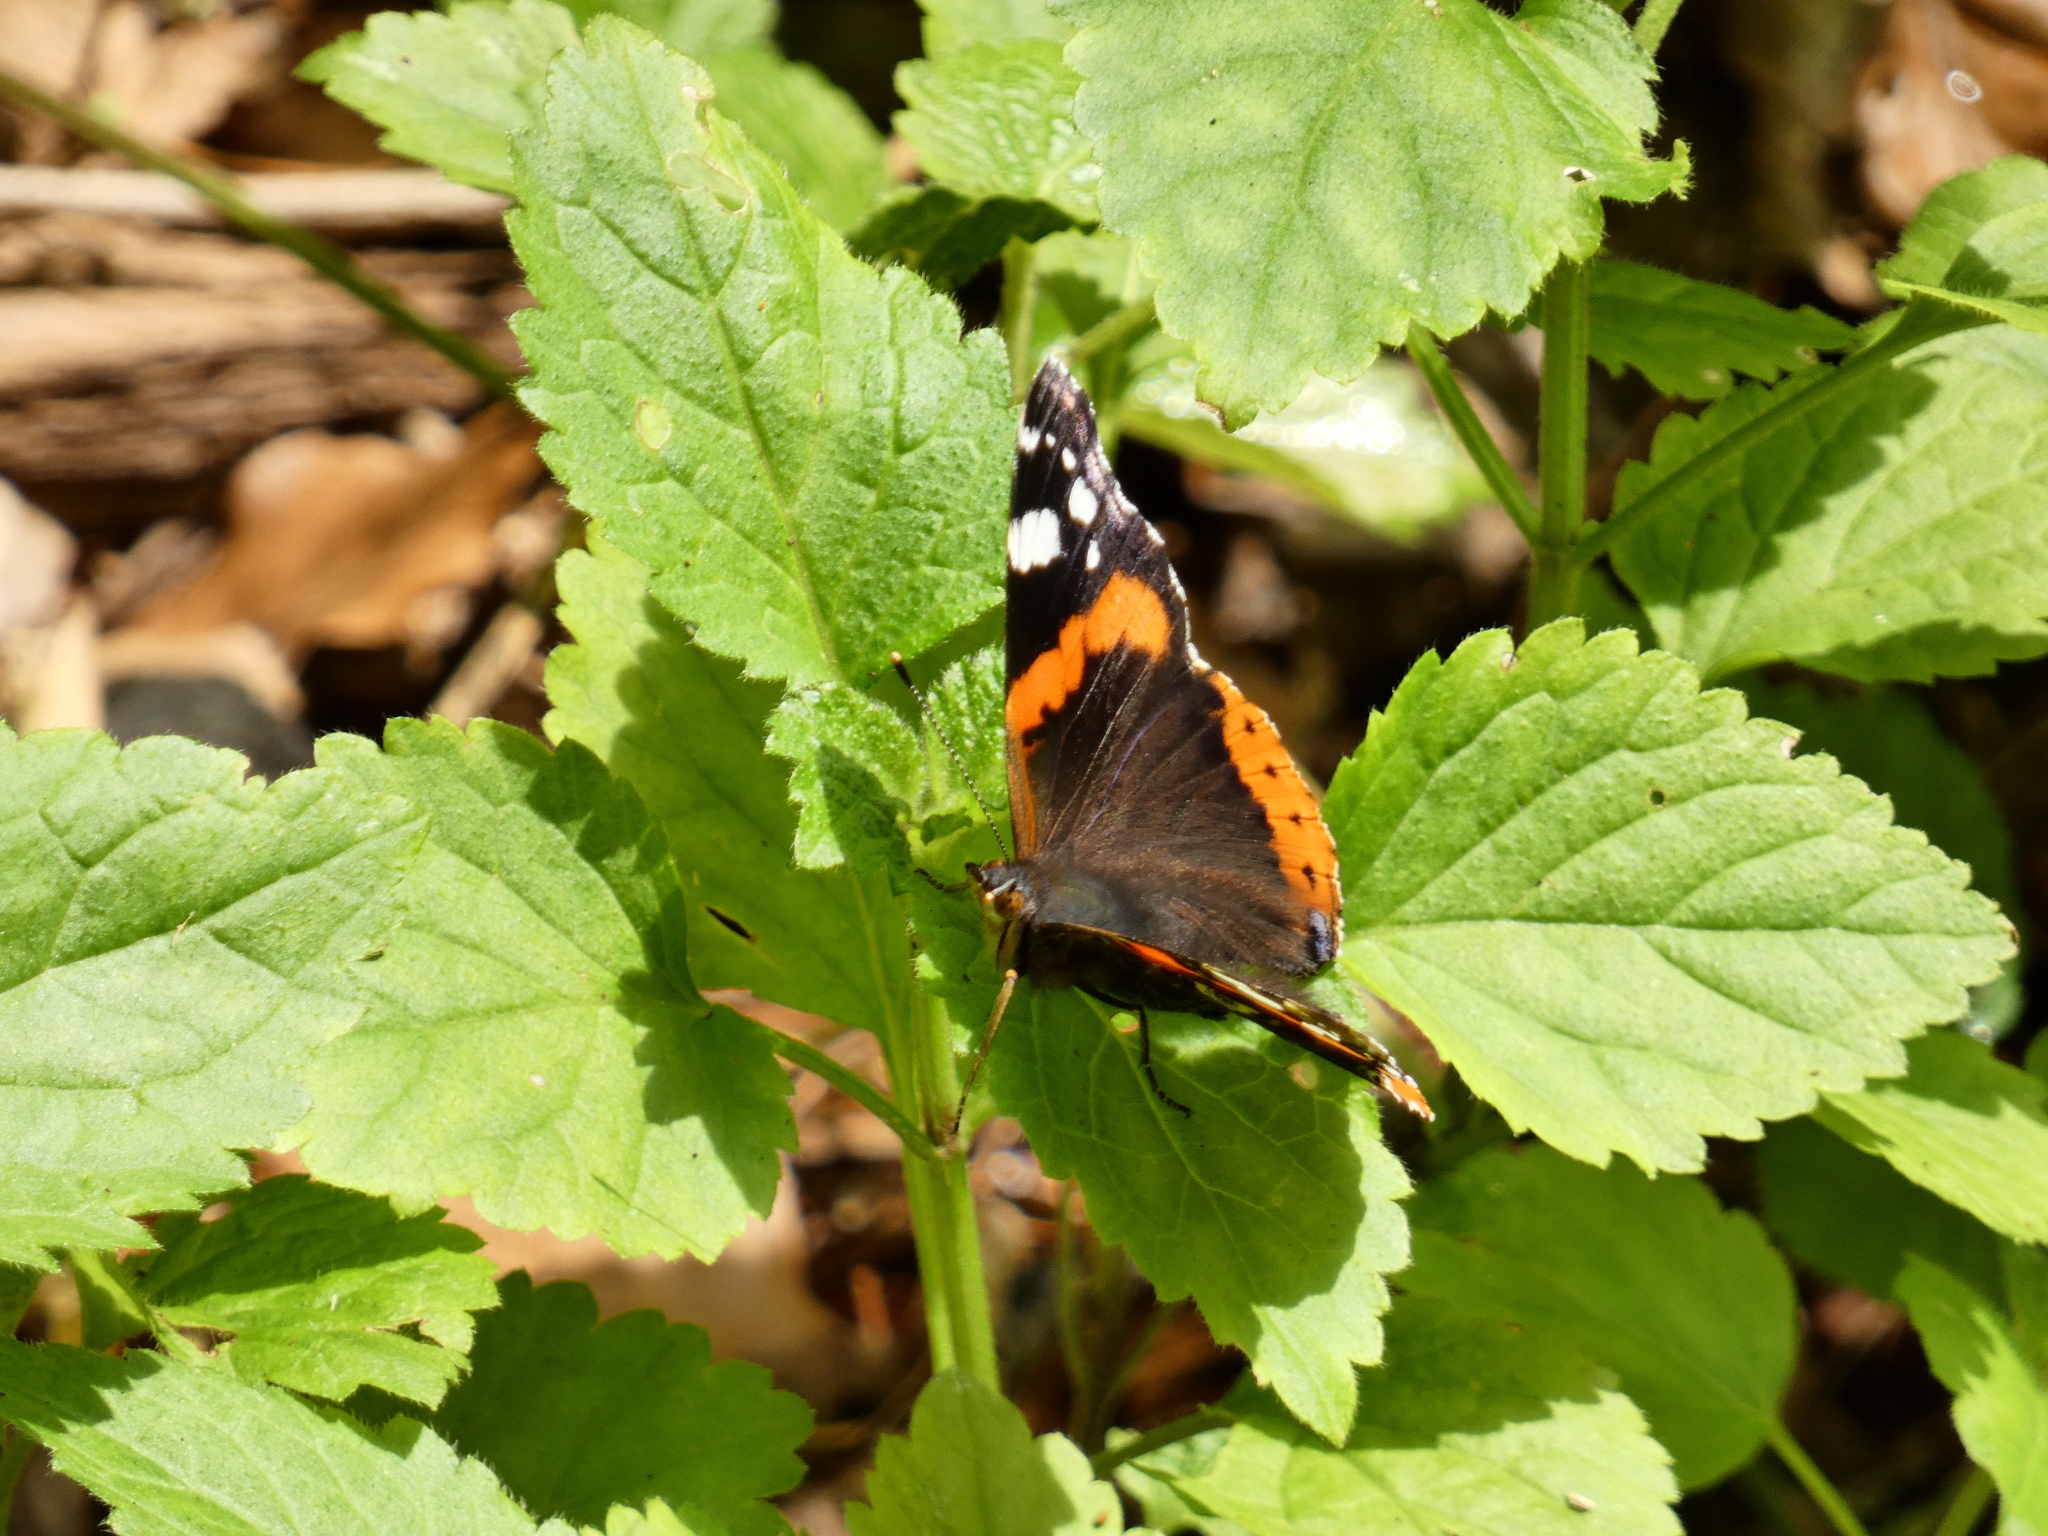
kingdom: Animalia
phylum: Arthropoda
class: Insecta
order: Lepidoptera
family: Nymphalidae
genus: Vanessa
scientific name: Vanessa atalanta
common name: Red admiral
